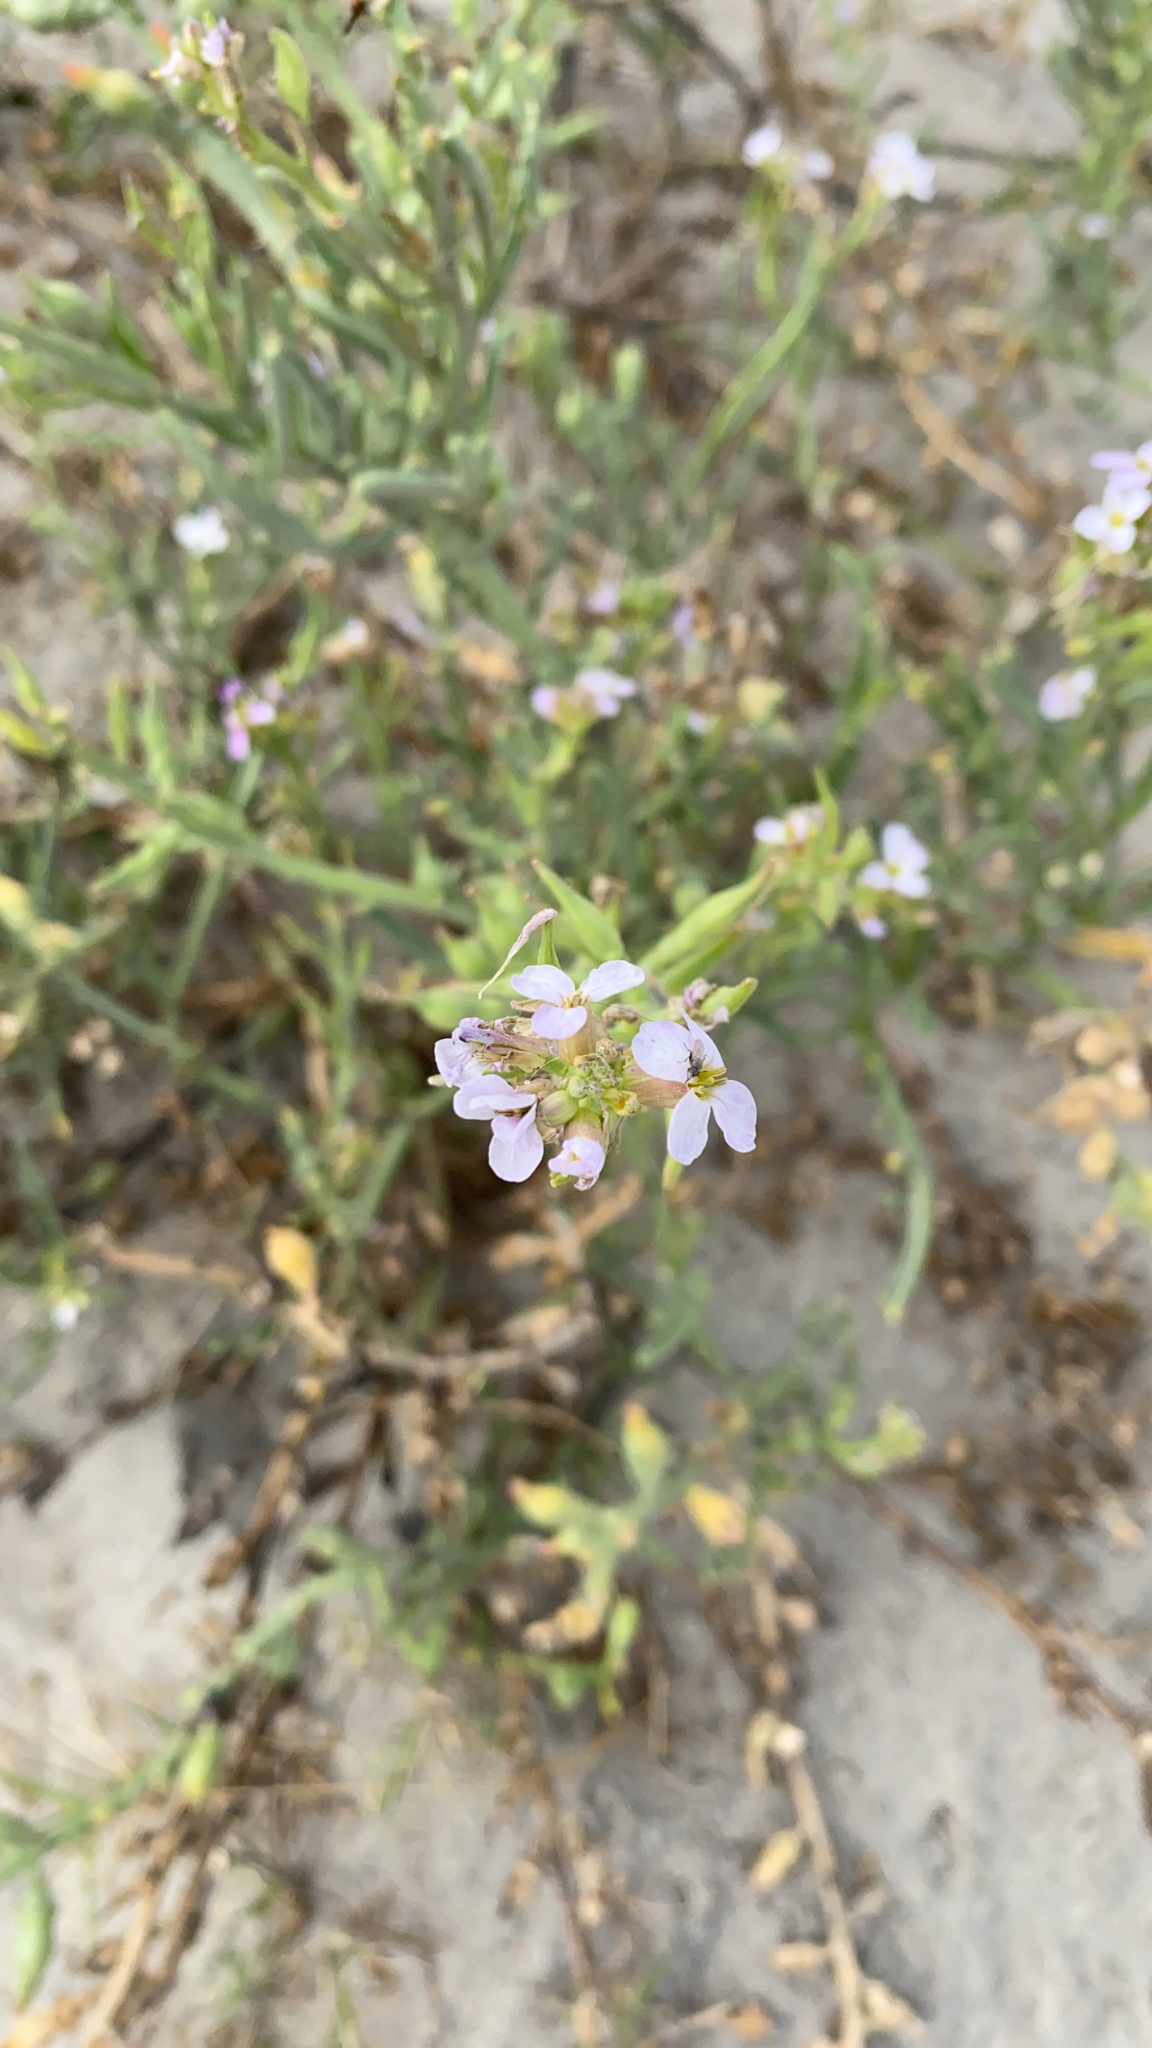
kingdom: Plantae
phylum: Tracheophyta
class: Magnoliopsida
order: Brassicales
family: Brassicaceae
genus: Cakile
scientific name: Cakile maritima
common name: Sea rocket
